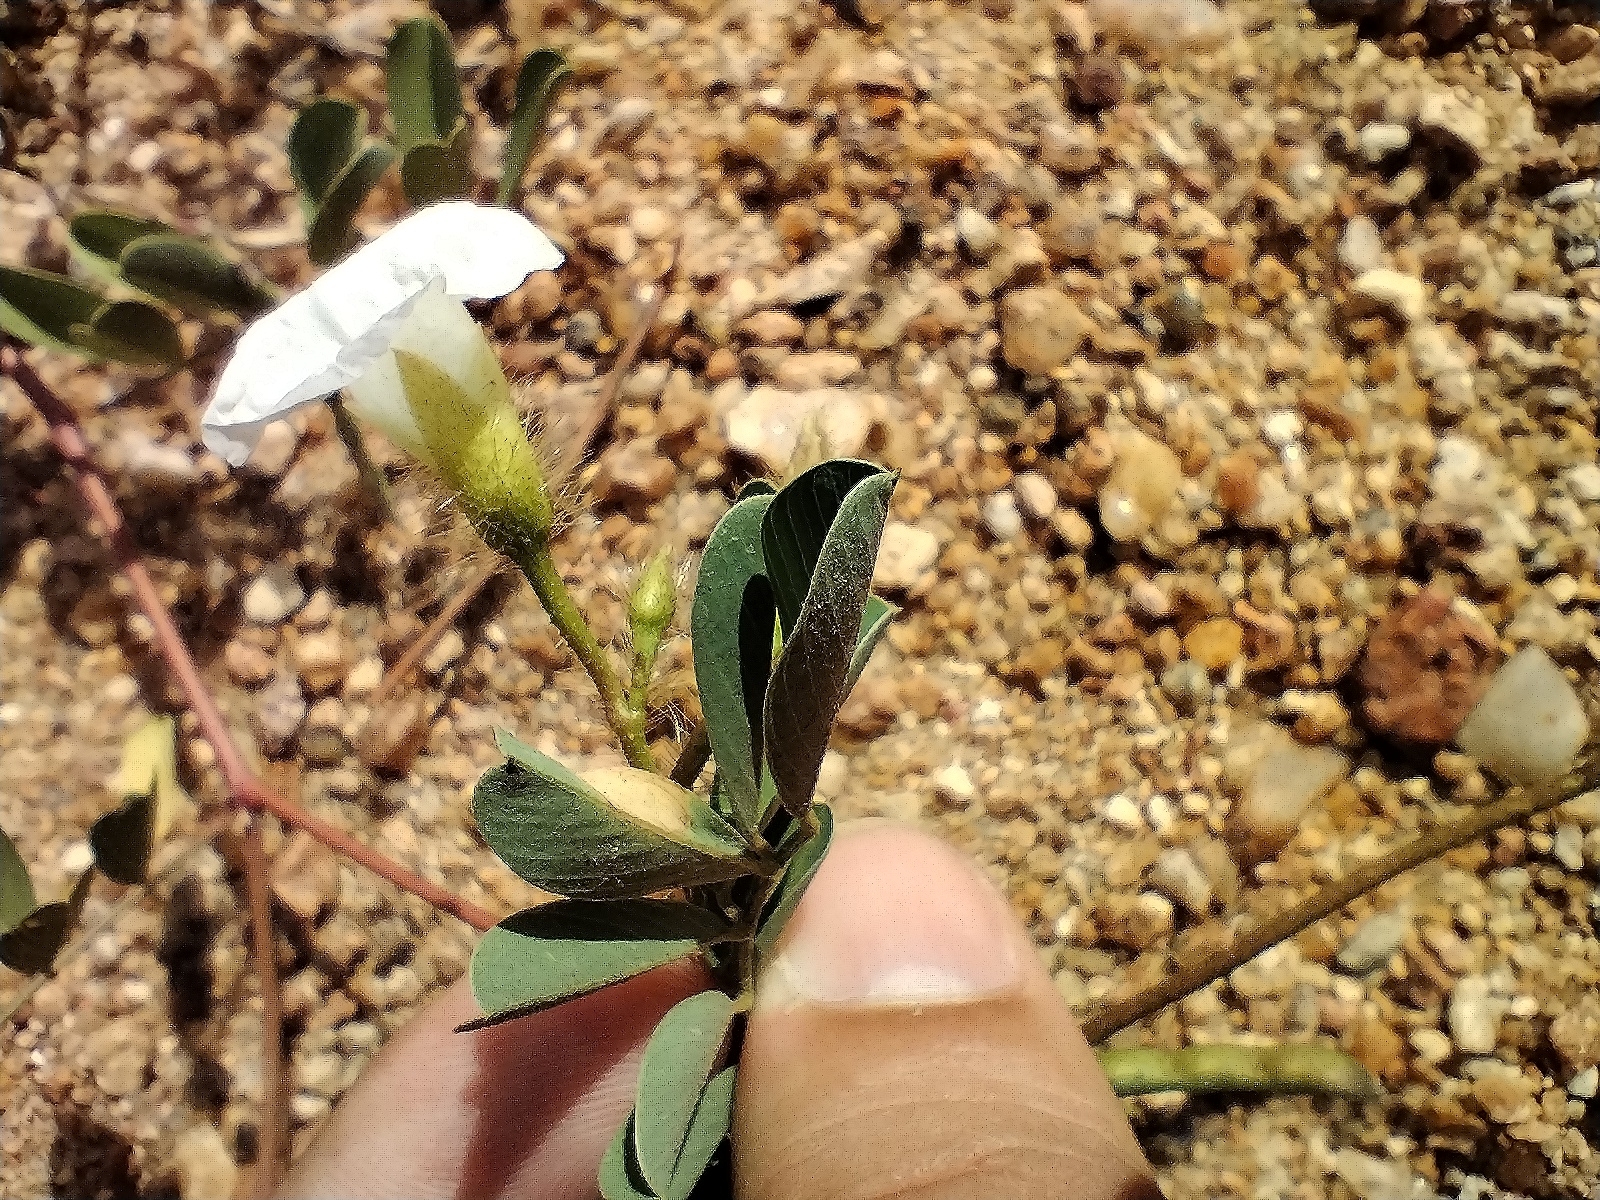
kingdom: Plantae
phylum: Tracheophyta
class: Magnoliopsida
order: Solanales
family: Convolvulaceae
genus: Distimake
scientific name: Distimake aegyptius
